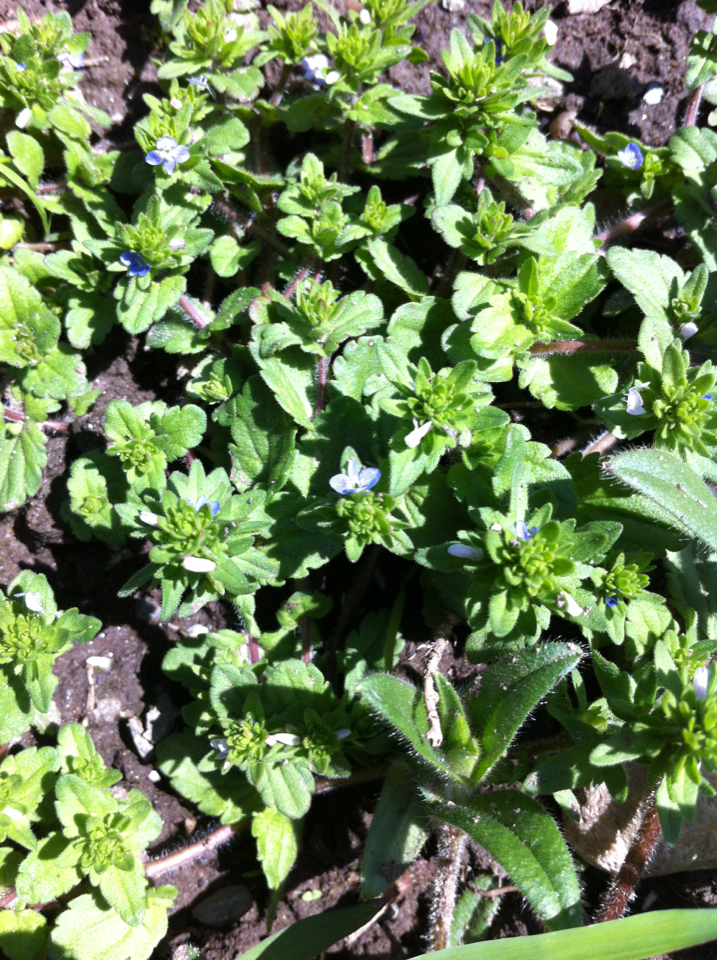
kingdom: Plantae
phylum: Tracheophyta
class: Magnoliopsida
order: Lamiales
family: Plantaginaceae
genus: Veronica
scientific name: Veronica arvensis
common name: Corn speedwell
